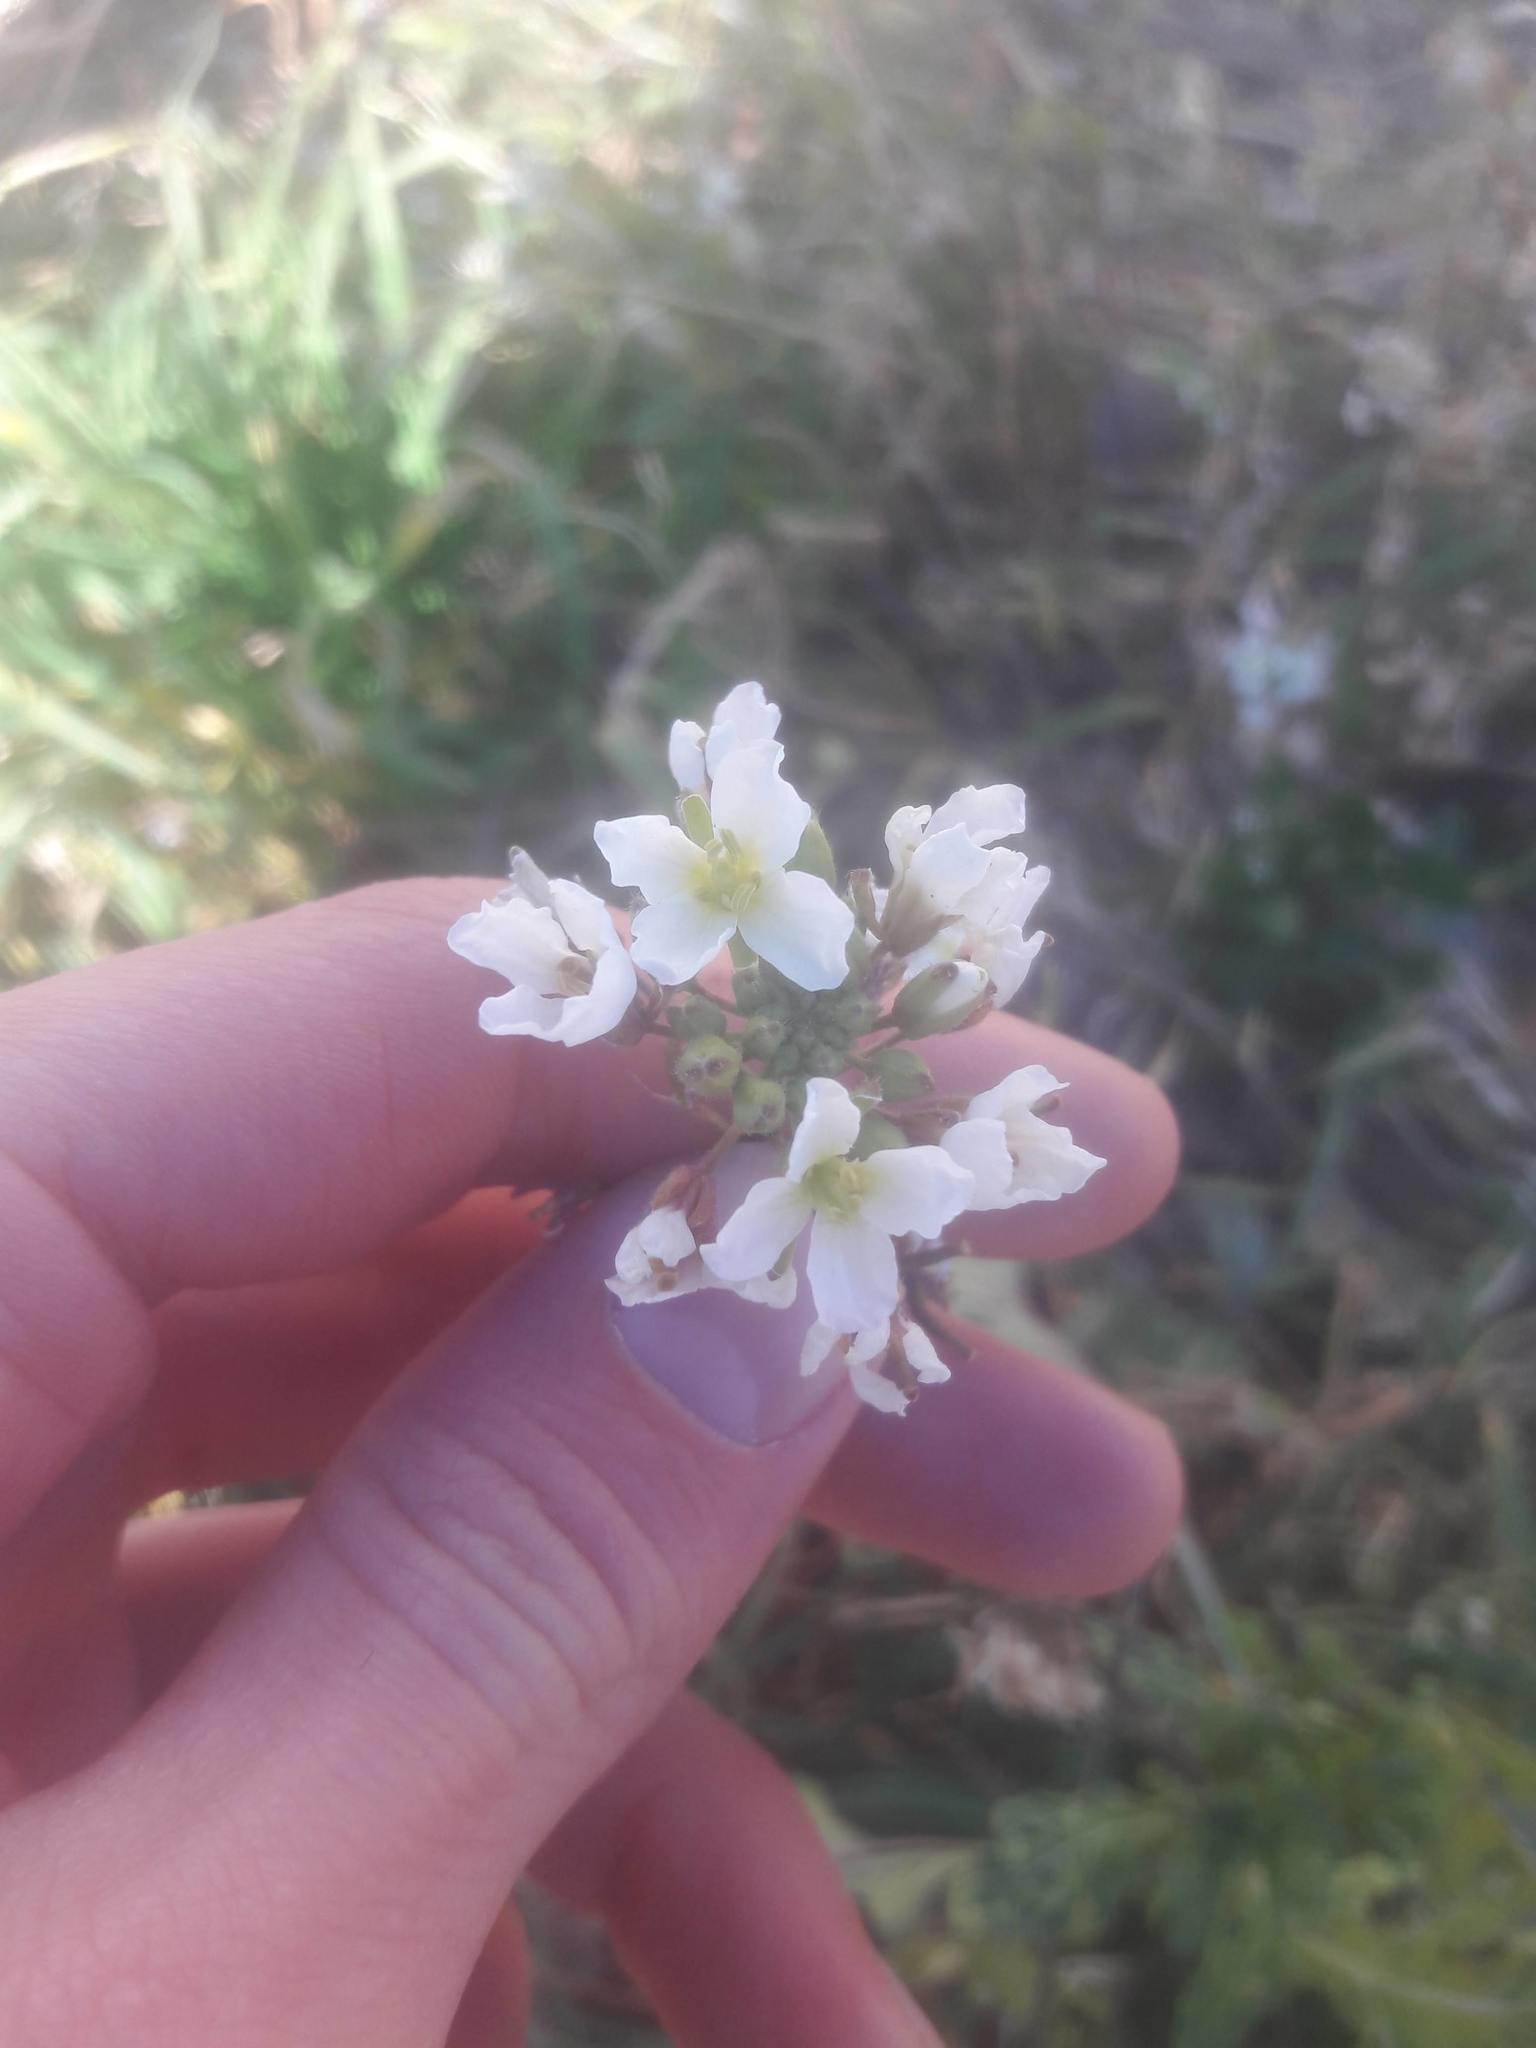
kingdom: Plantae
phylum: Tracheophyta
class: Magnoliopsida
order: Brassicales
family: Brassicaceae
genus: Diplotaxis
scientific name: Diplotaxis erucoides
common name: White rocket
